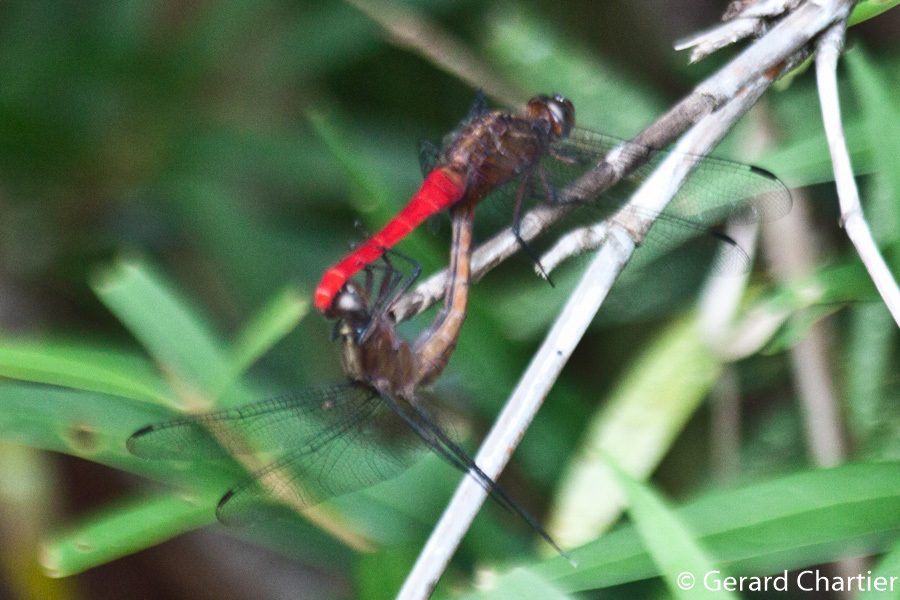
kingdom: Animalia
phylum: Arthropoda
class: Insecta
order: Odonata
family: Libellulidae
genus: Orthetrum
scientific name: Orthetrum chrysis
